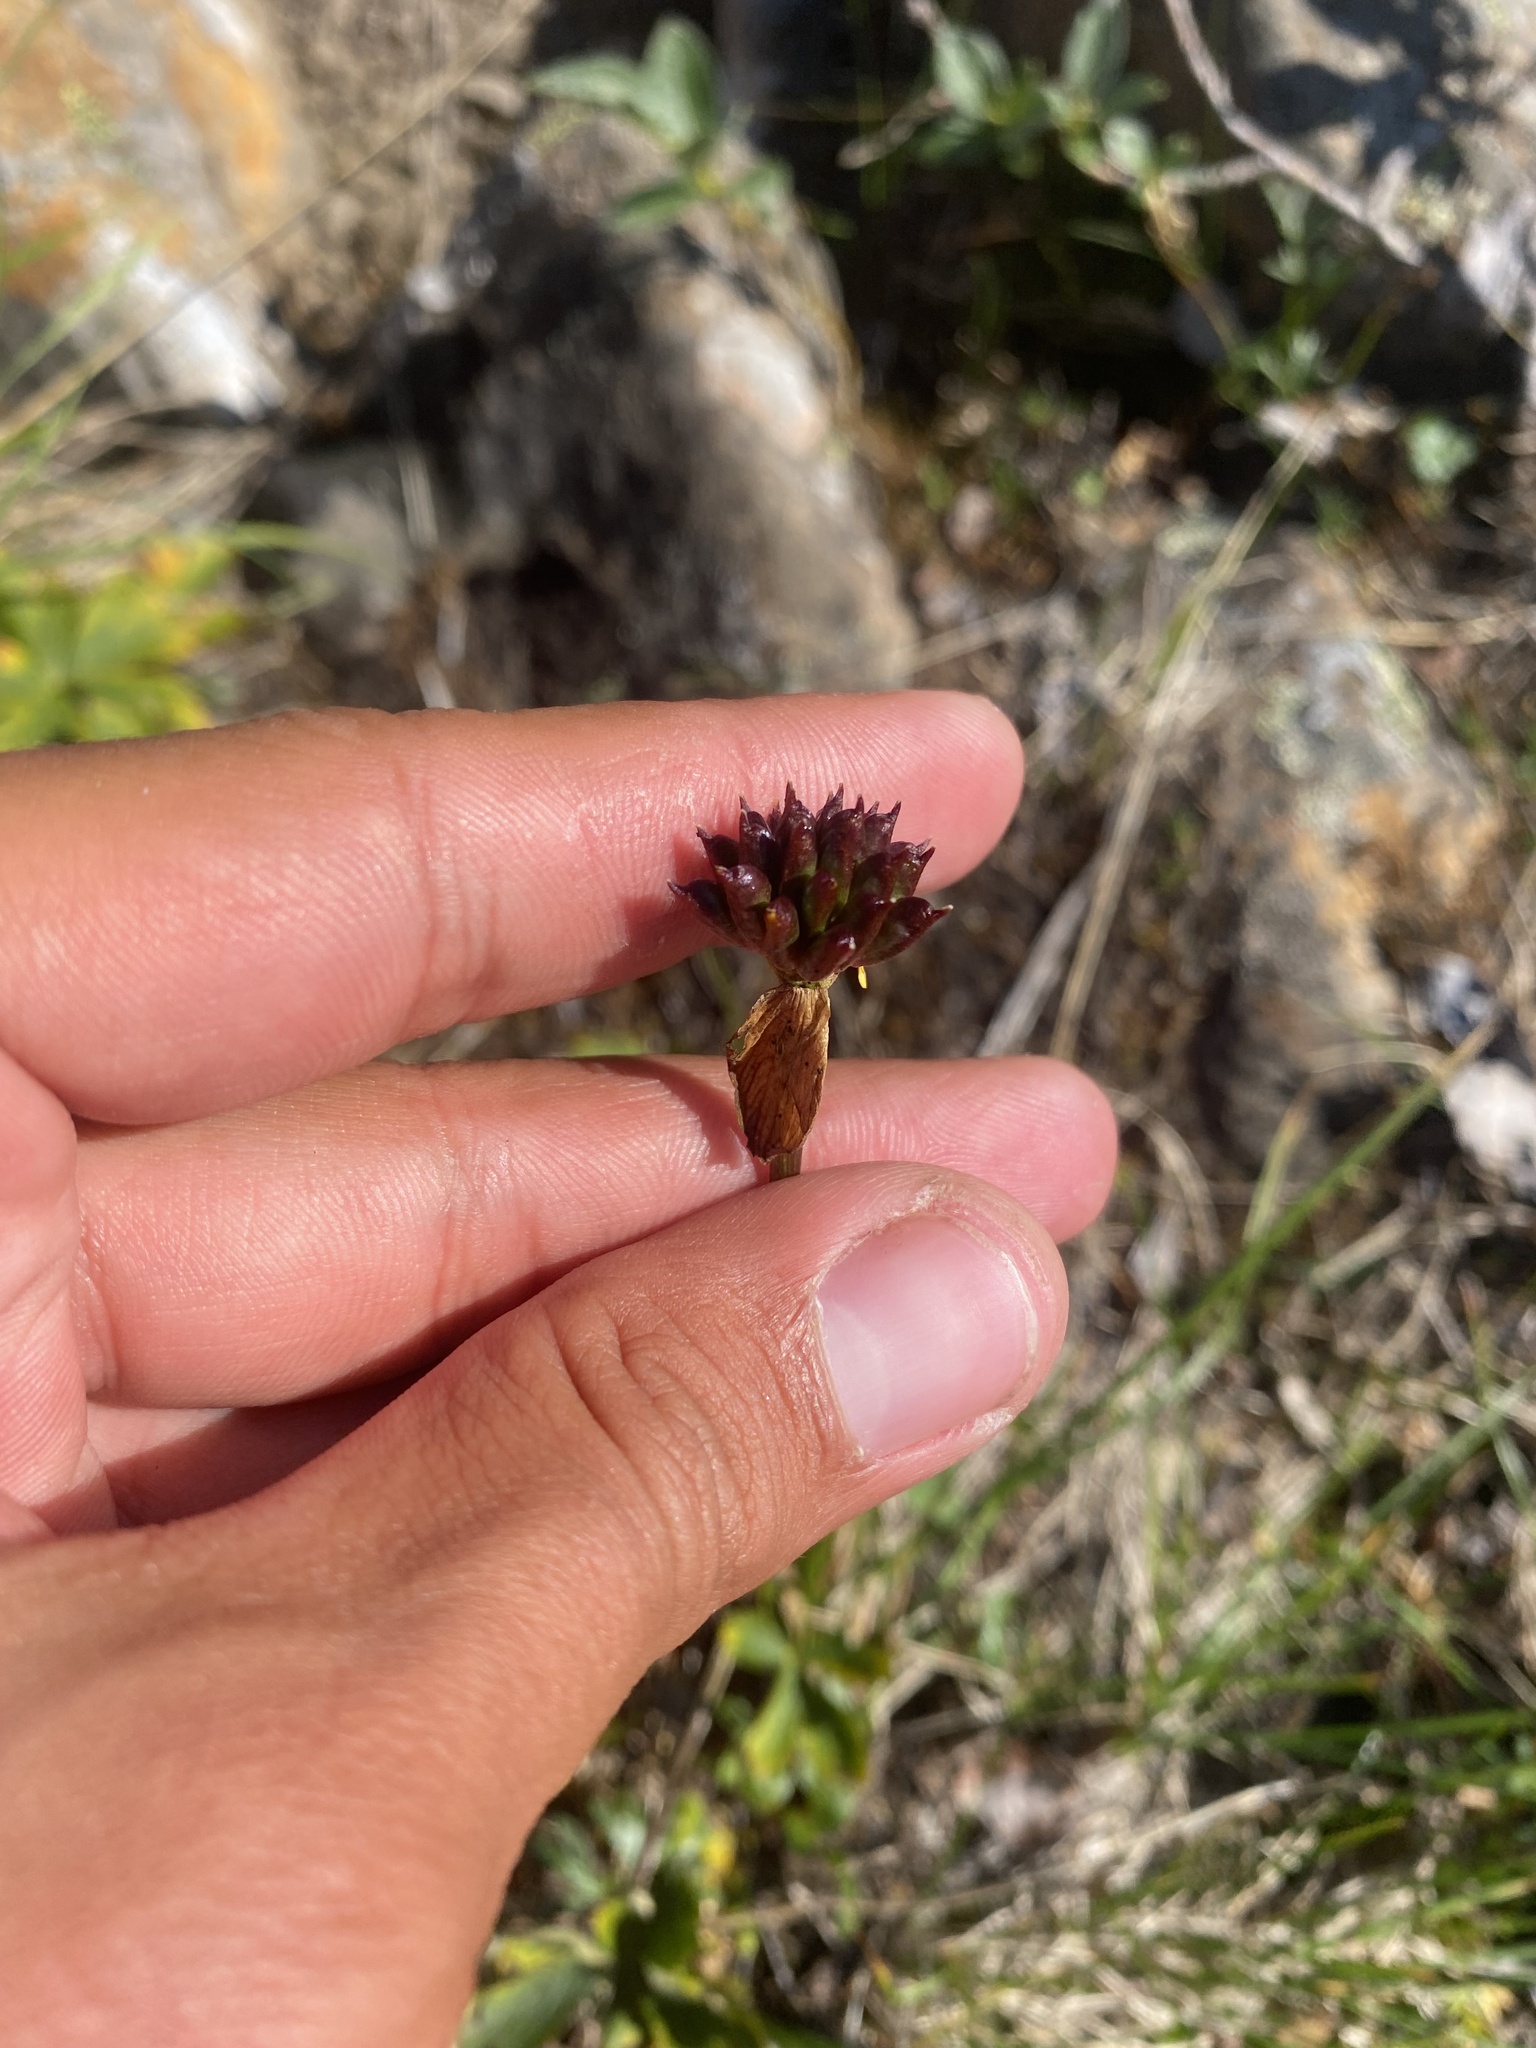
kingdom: Plantae
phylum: Tracheophyta
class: Magnoliopsida
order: Ranunculales
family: Ranunculaceae
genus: Trollius
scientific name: Trollius sibiricus
